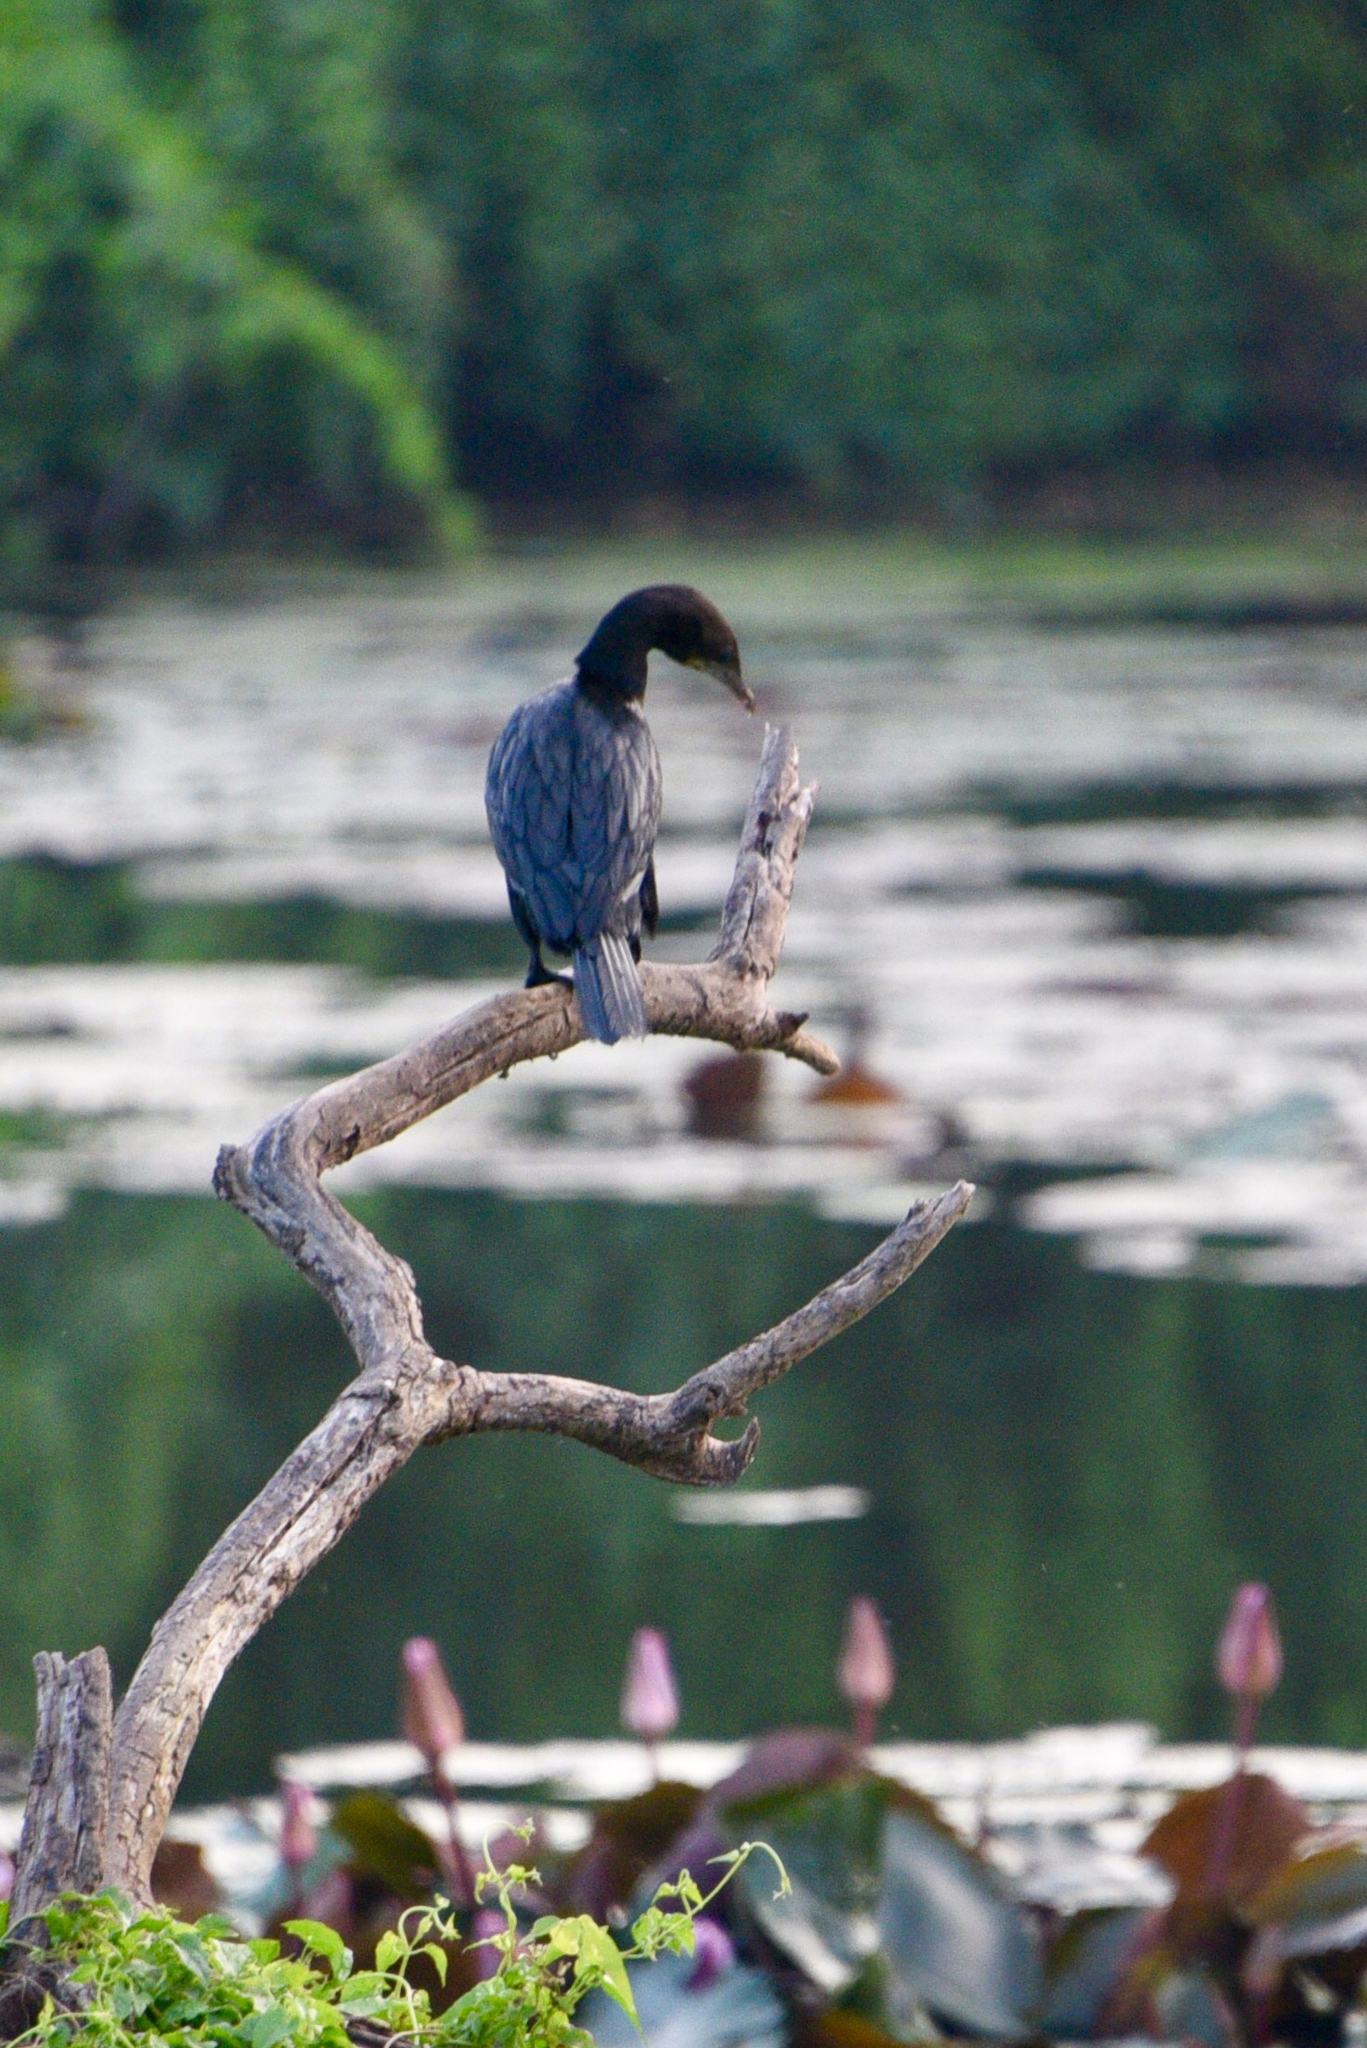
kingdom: Animalia
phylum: Chordata
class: Aves
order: Suliformes
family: Phalacrocoracidae
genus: Microcarbo
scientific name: Microcarbo niger
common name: Little cormorant
